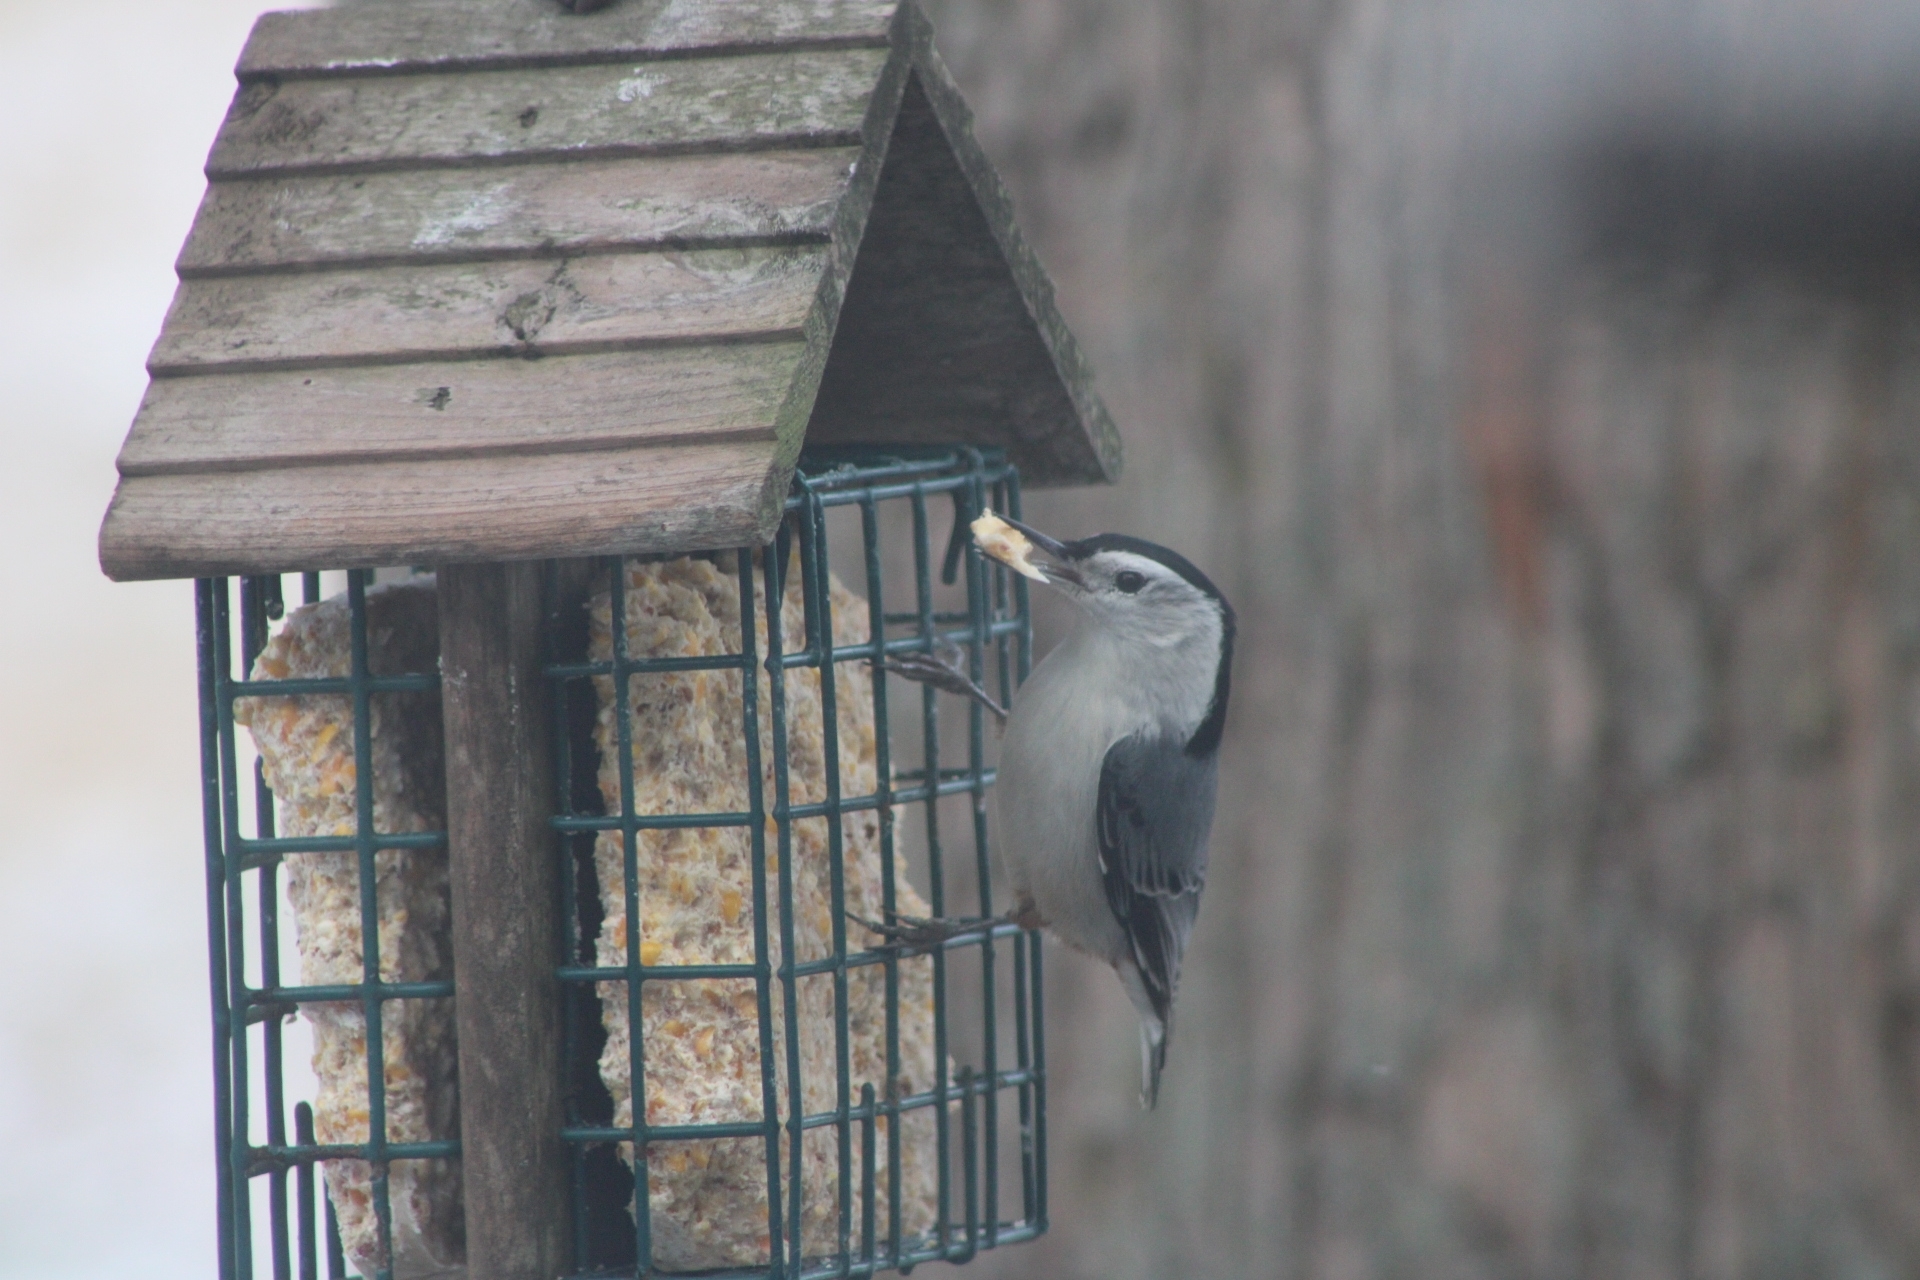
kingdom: Animalia
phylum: Chordata
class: Aves
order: Passeriformes
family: Sittidae
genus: Sitta
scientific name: Sitta carolinensis
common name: White-breasted nuthatch
